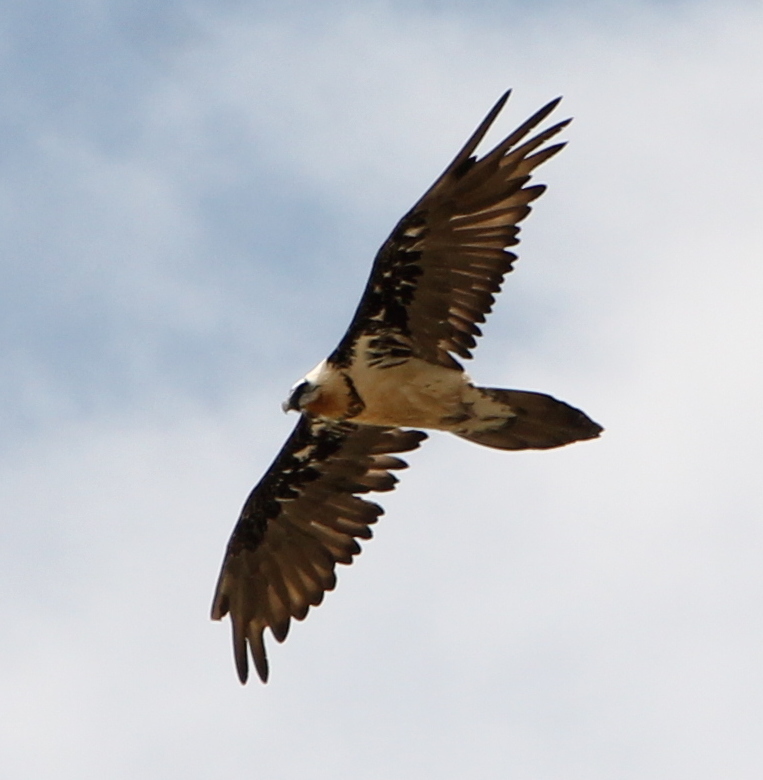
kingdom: Animalia
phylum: Chordata
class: Aves
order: Accipitriformes
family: Accipitridae
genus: Gypaetus
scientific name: Gypaetus barbatus
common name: Bearded vulture
